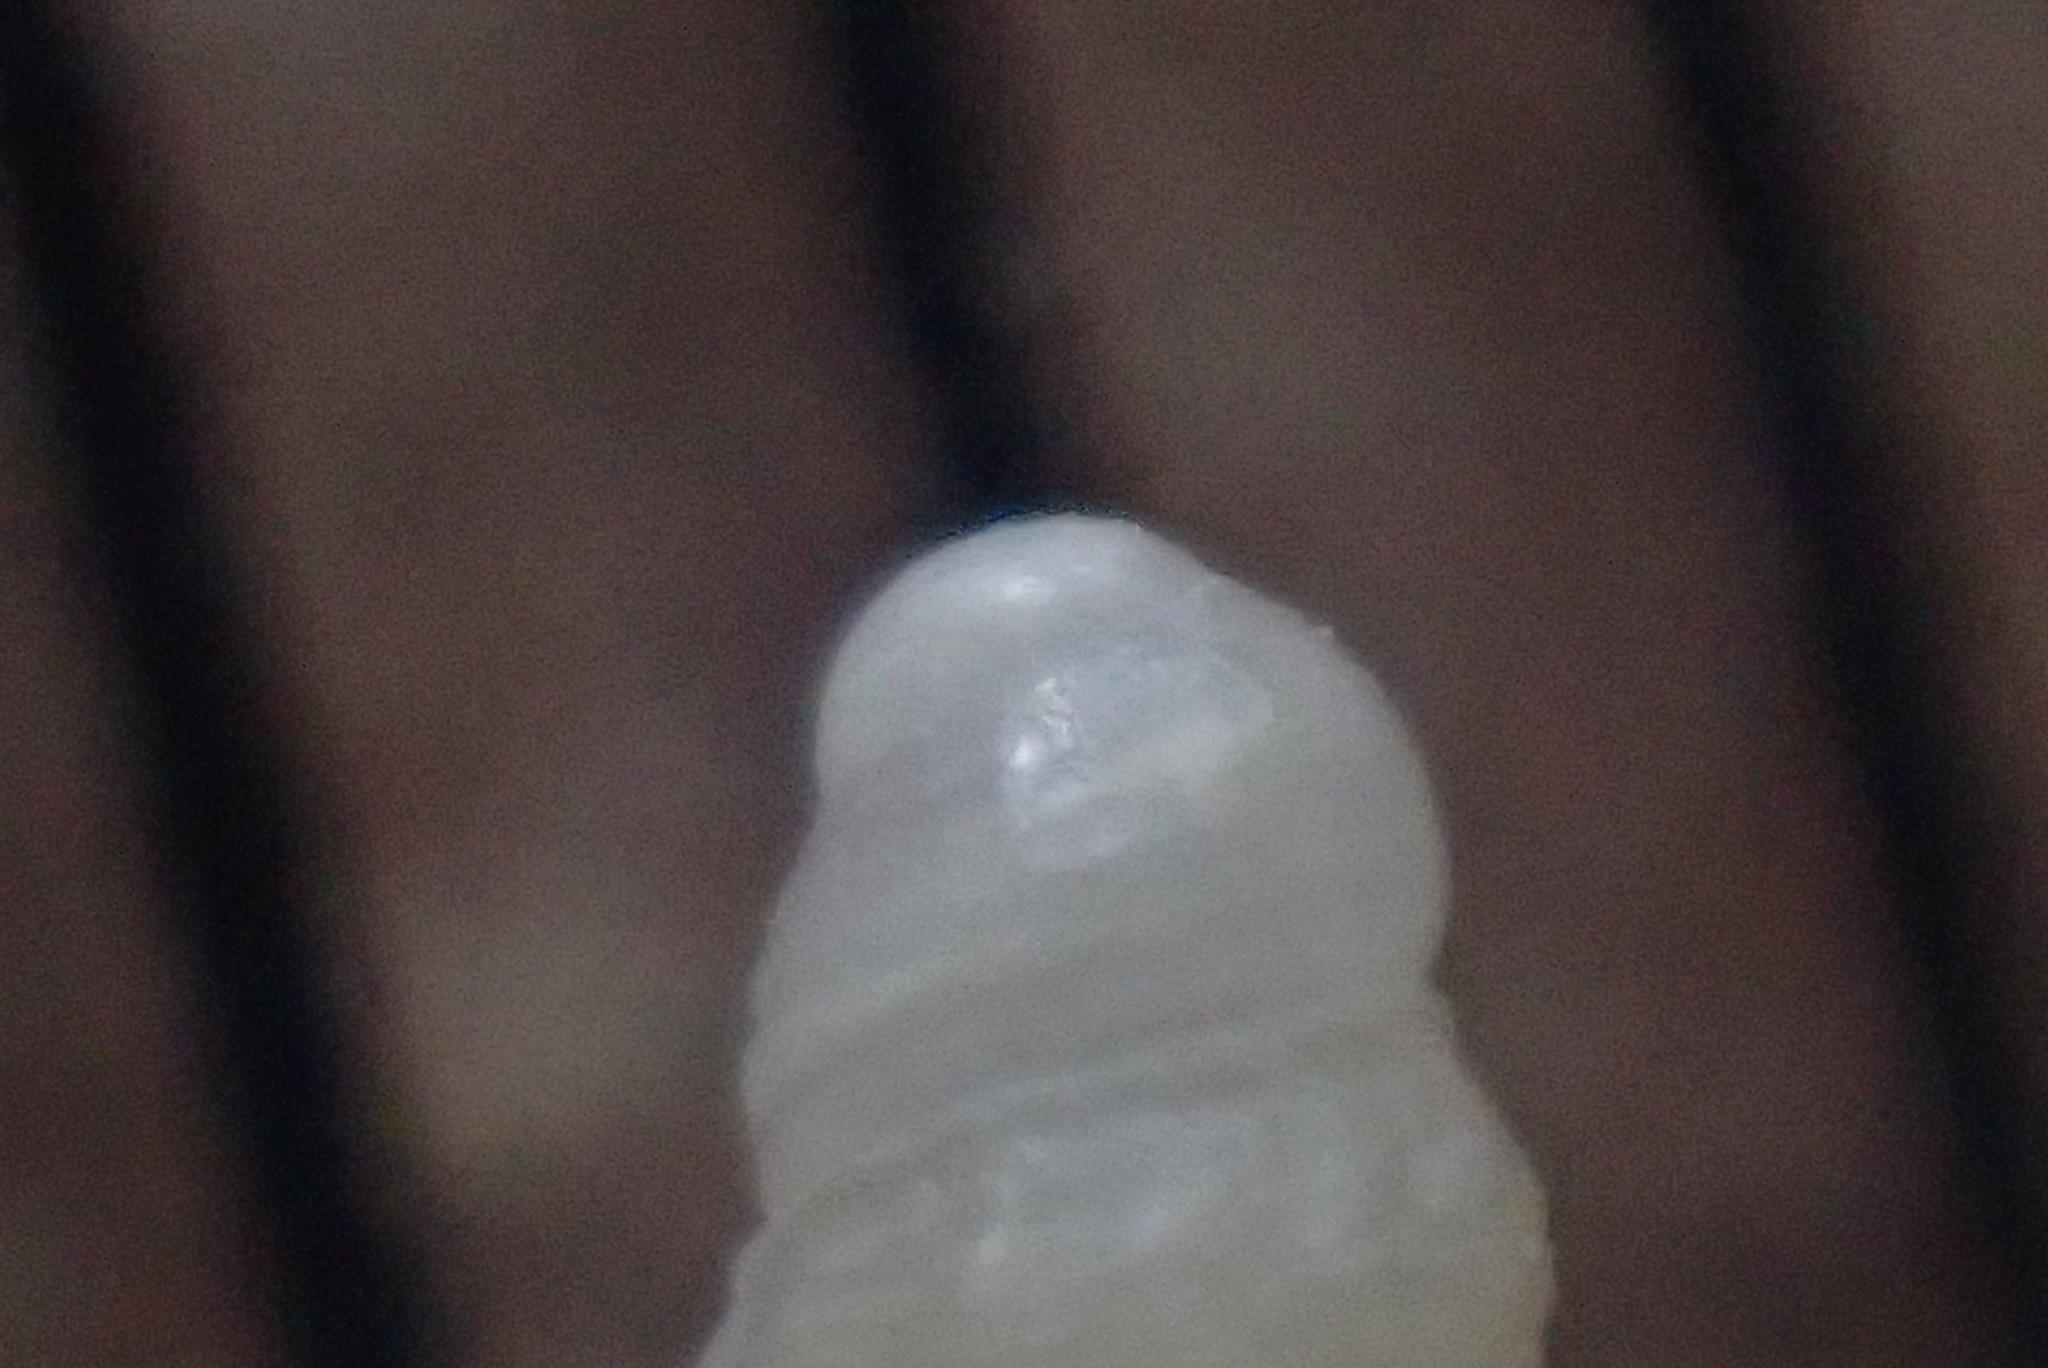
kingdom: Animalia
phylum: Mollusca
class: Gastropoda
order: Neogastropoda
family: Pseudomelatomidae
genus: Antimelatoma
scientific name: Antimelatoma buchanani
